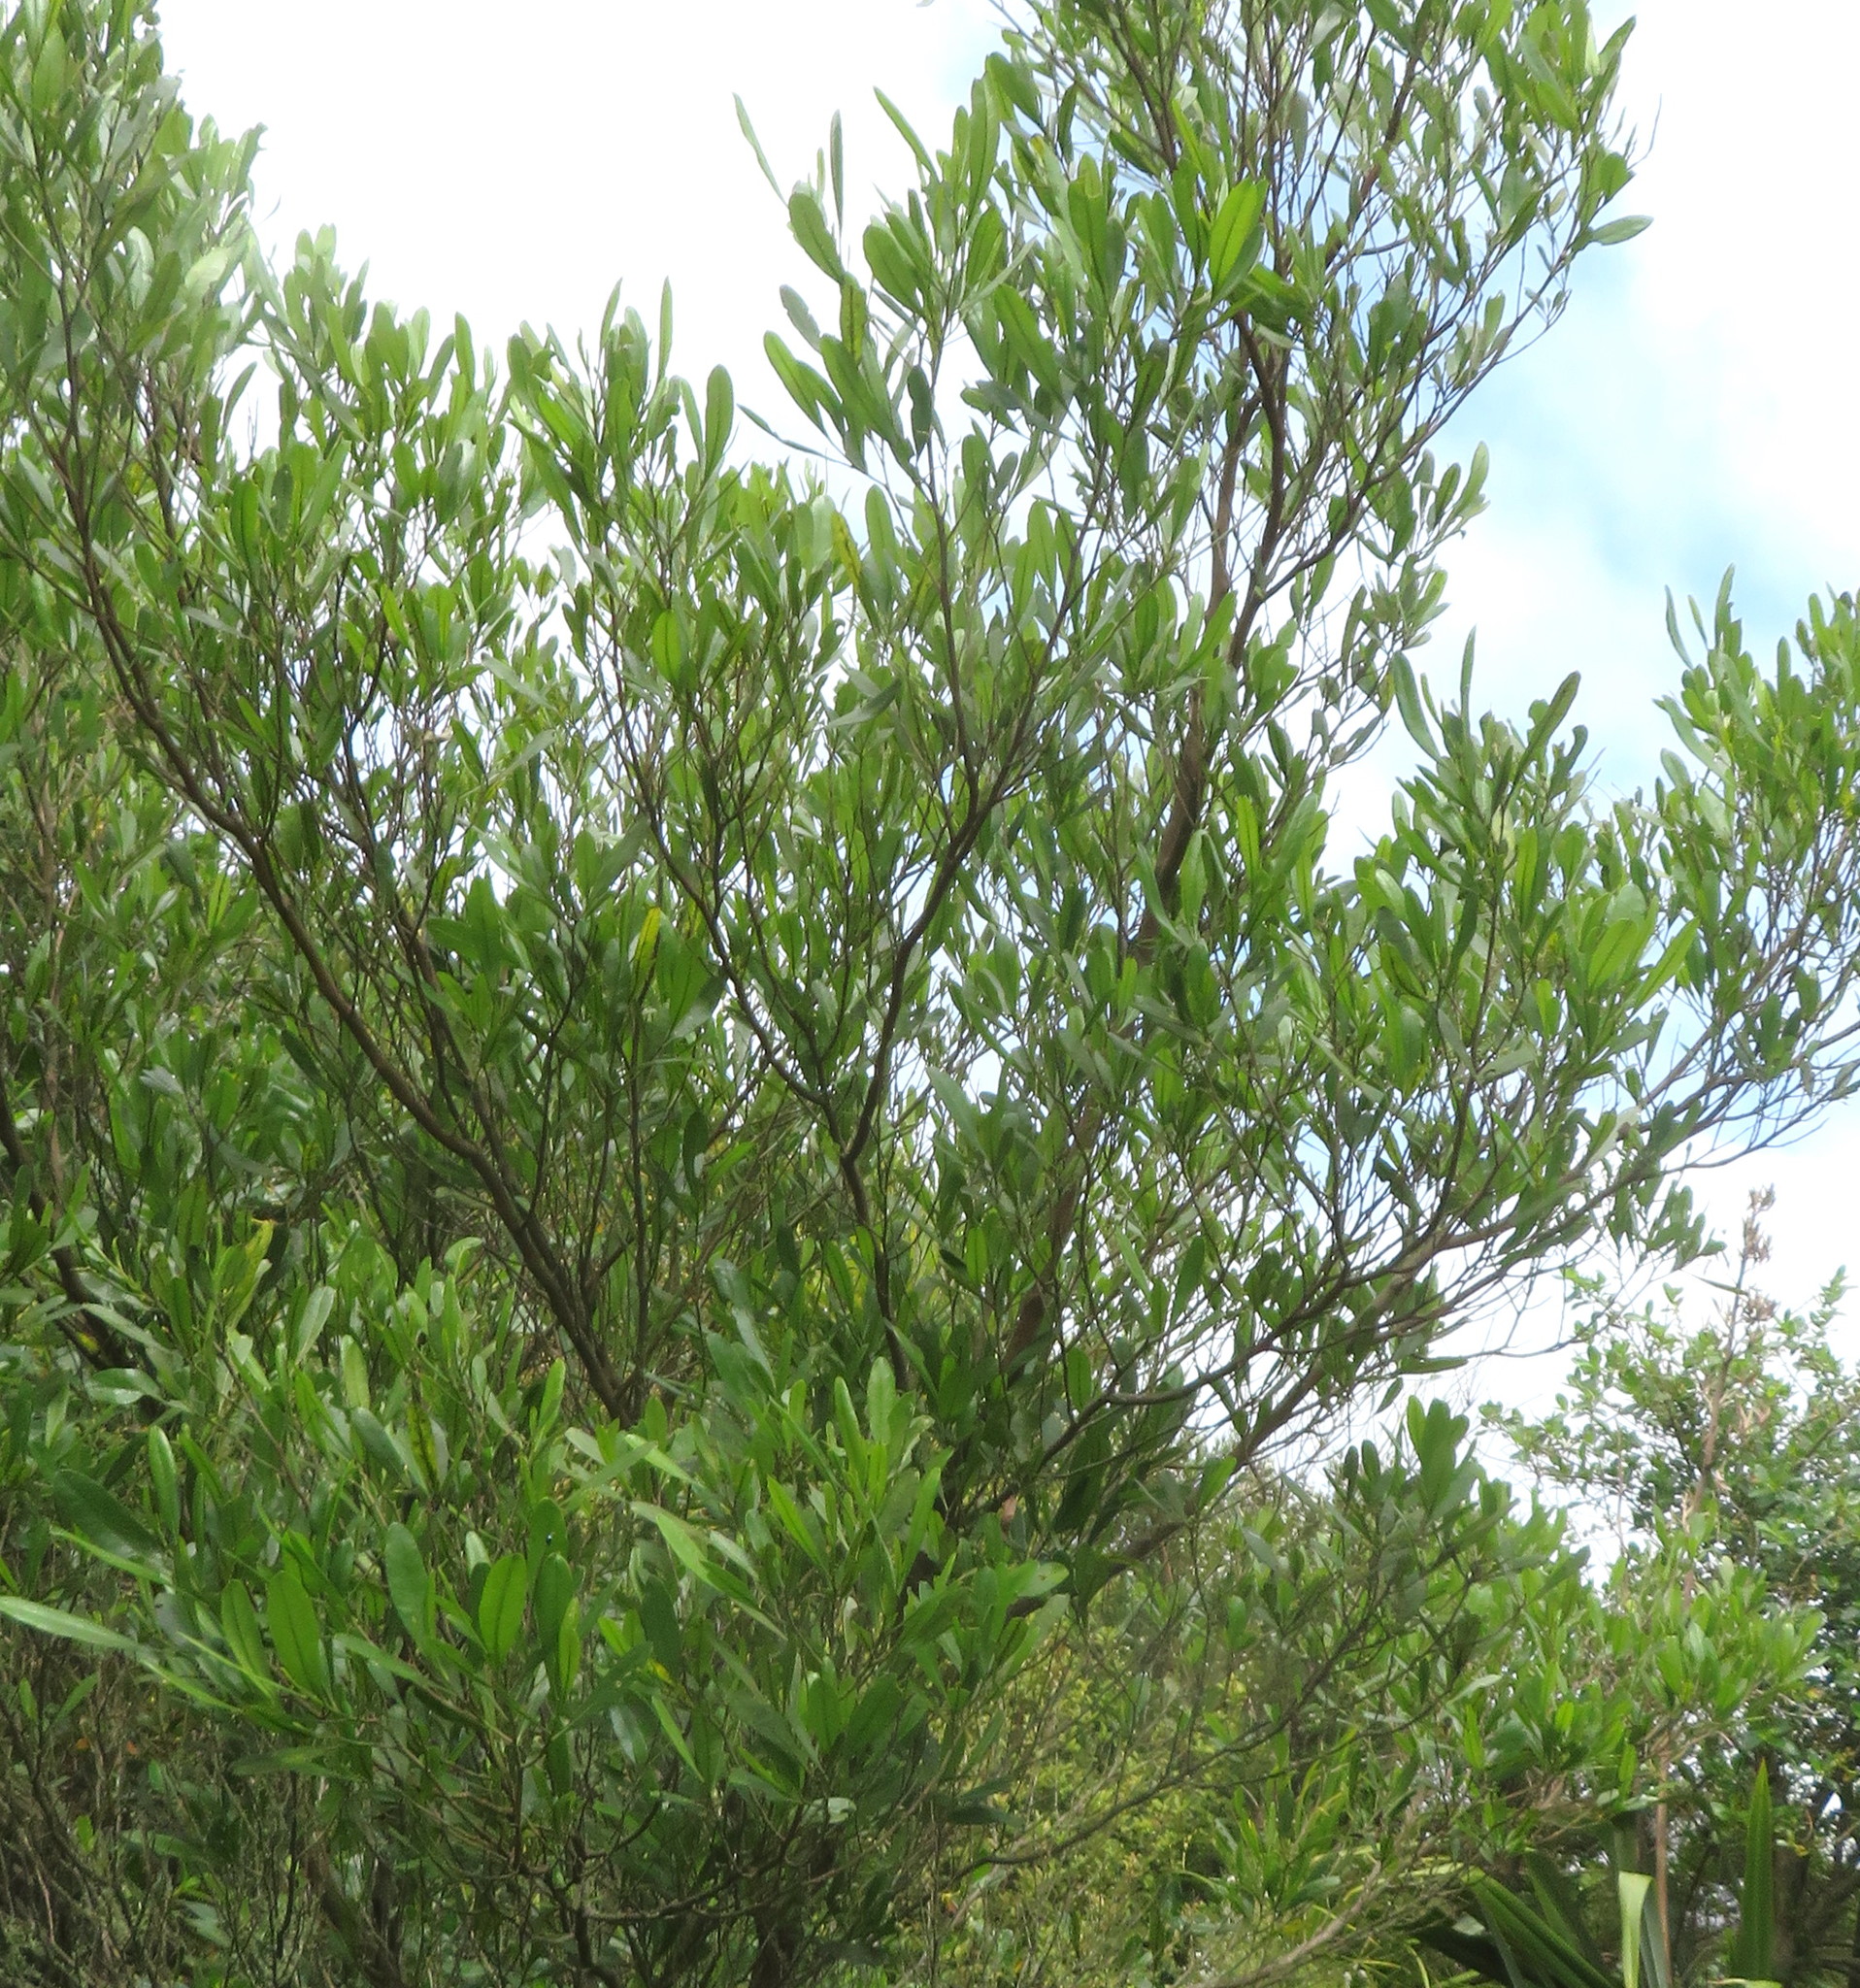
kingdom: Plantae
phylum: Tracheophyta
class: Magnoliopsida
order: Sapindales
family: Sapindaceae
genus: Dodonaea
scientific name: Dodonaea viscosa
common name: Hopbush
